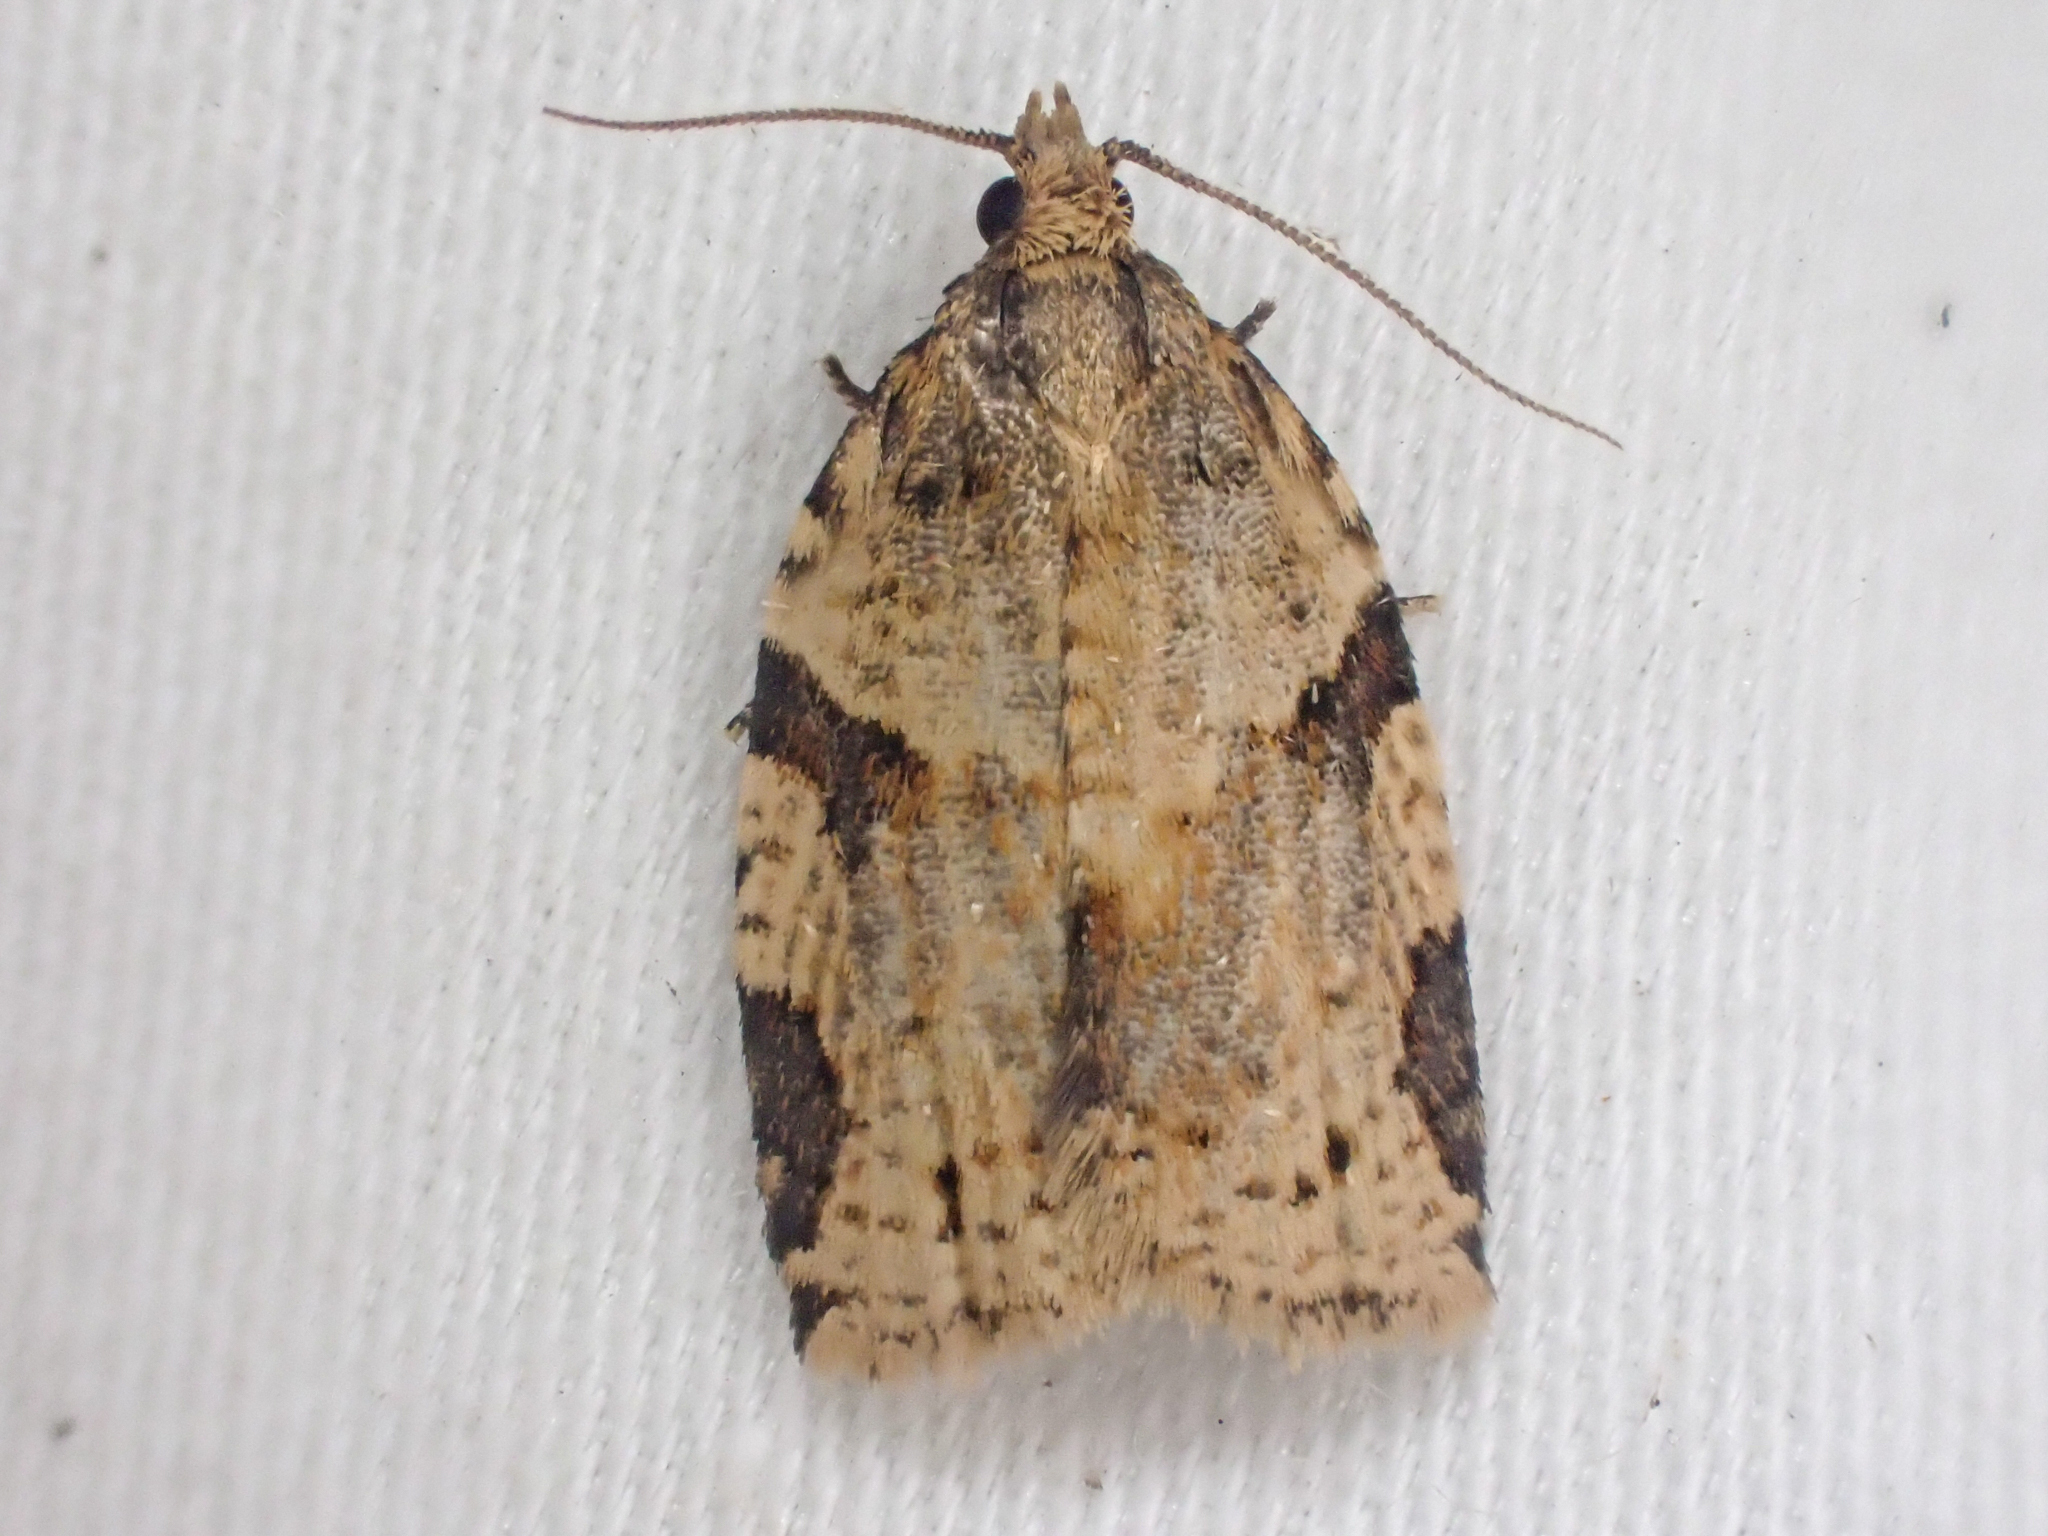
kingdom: Animalia
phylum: Arthropoda
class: Insecta
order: Lepidoptera
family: Tortricidae
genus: Clepsis
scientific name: Clepsis spectrana
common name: Cyclamen tortrix
